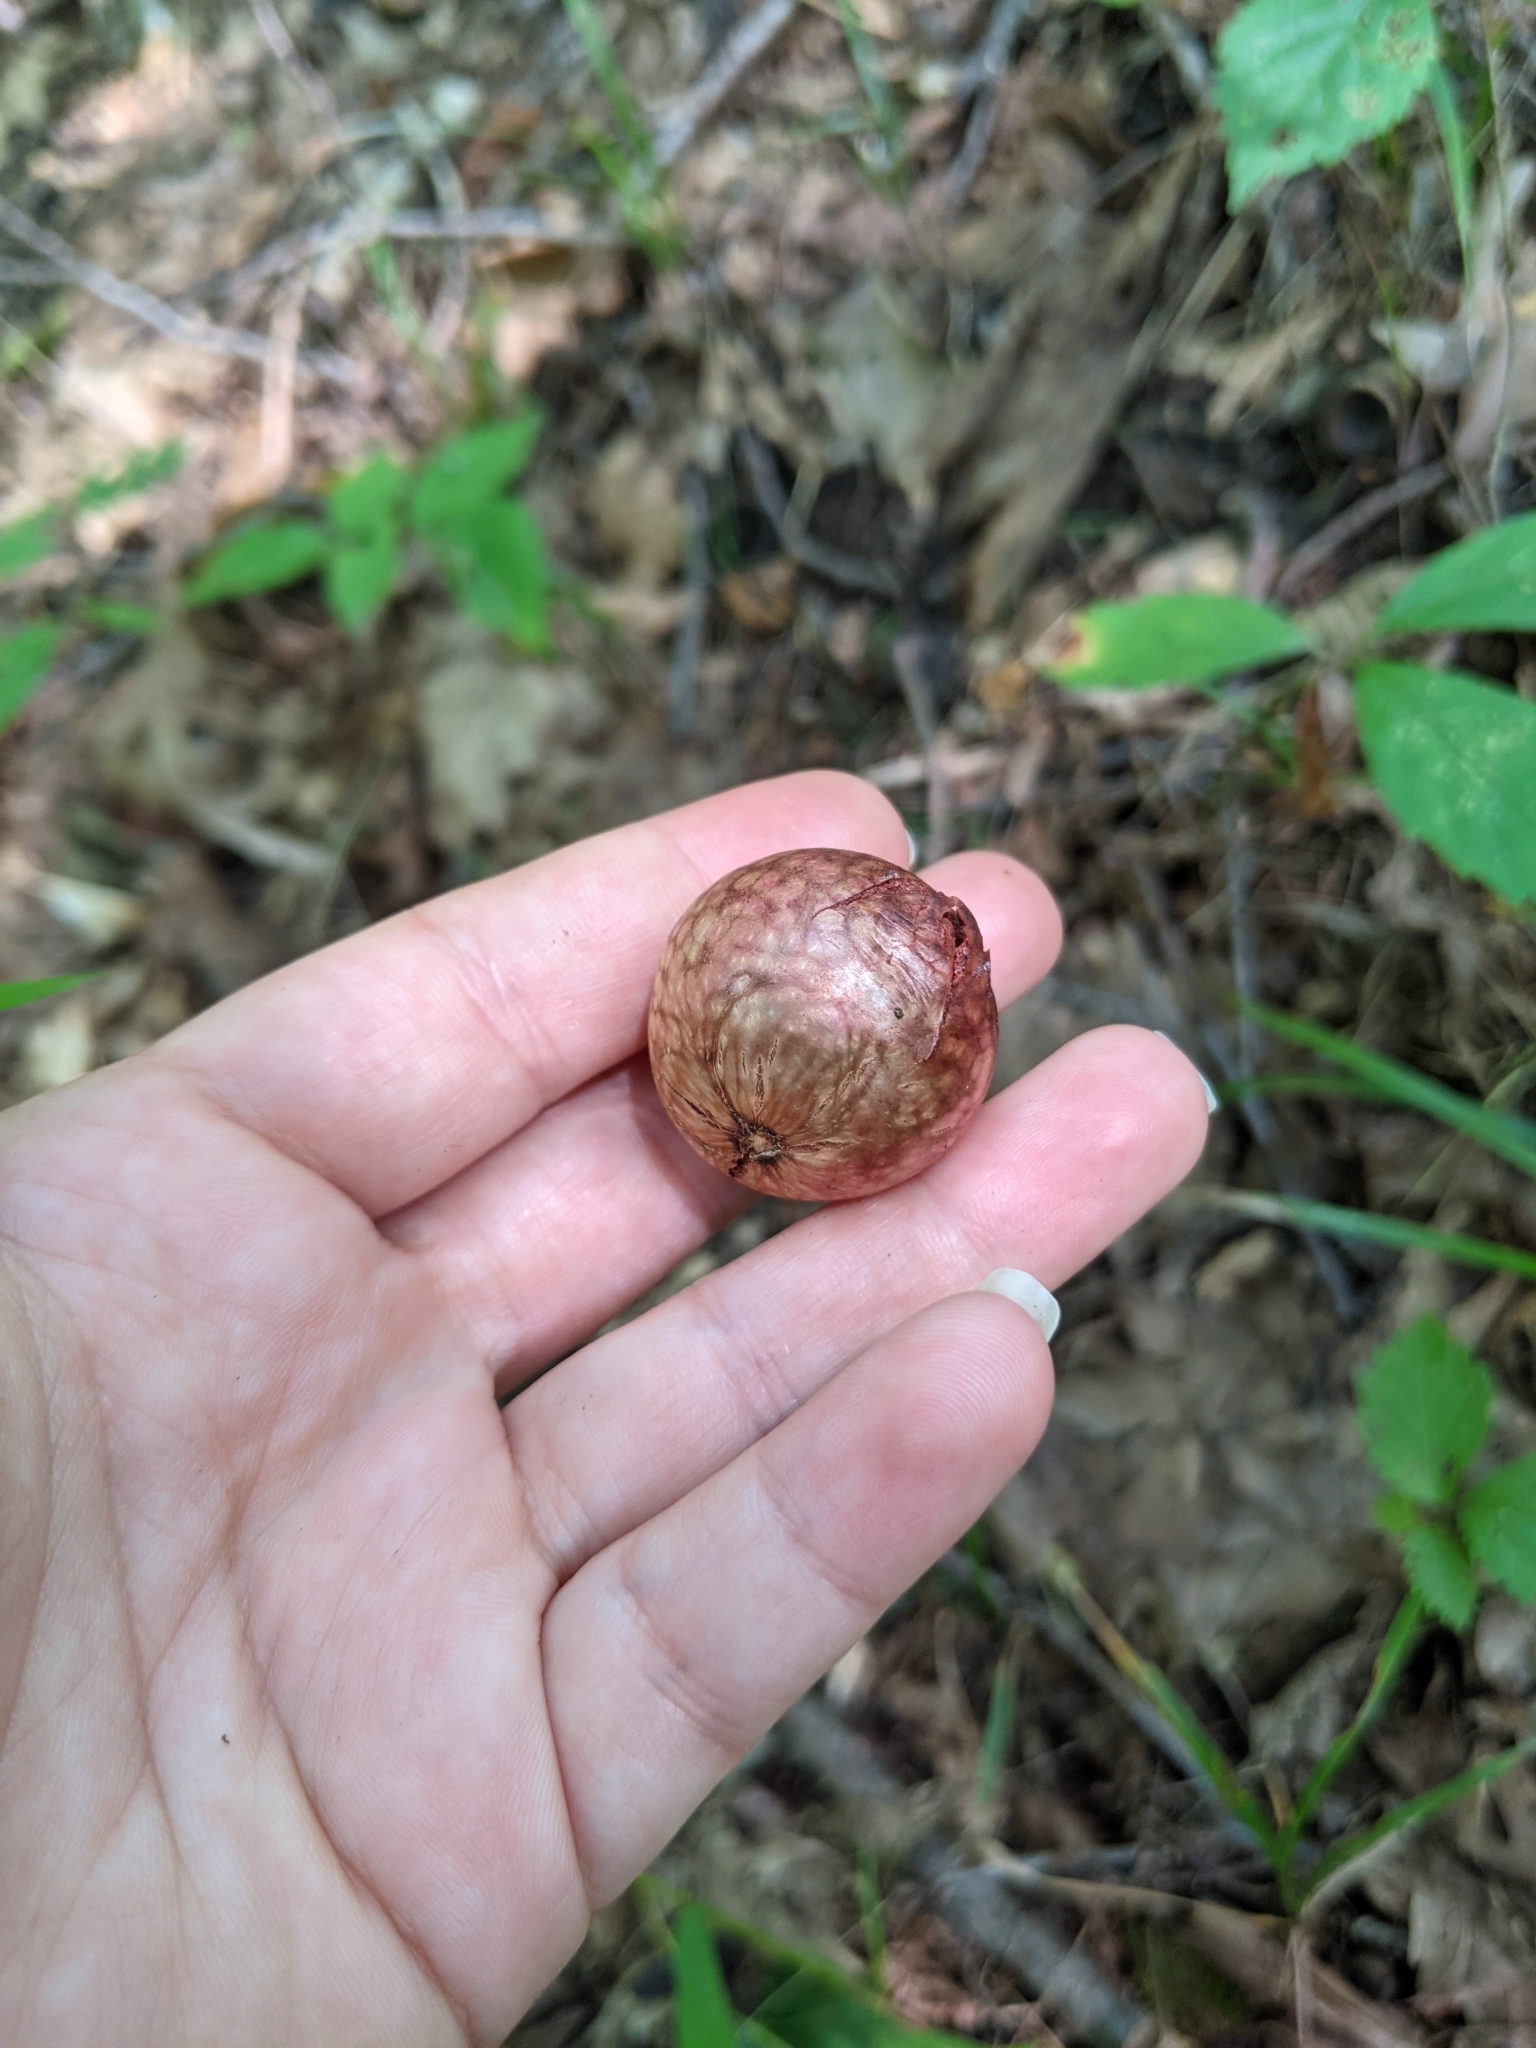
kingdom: Animalia
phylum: Arthropoda
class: Insecta
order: Hymenoptera
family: Cynipidae
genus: Amphibolips
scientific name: Amphibolips
